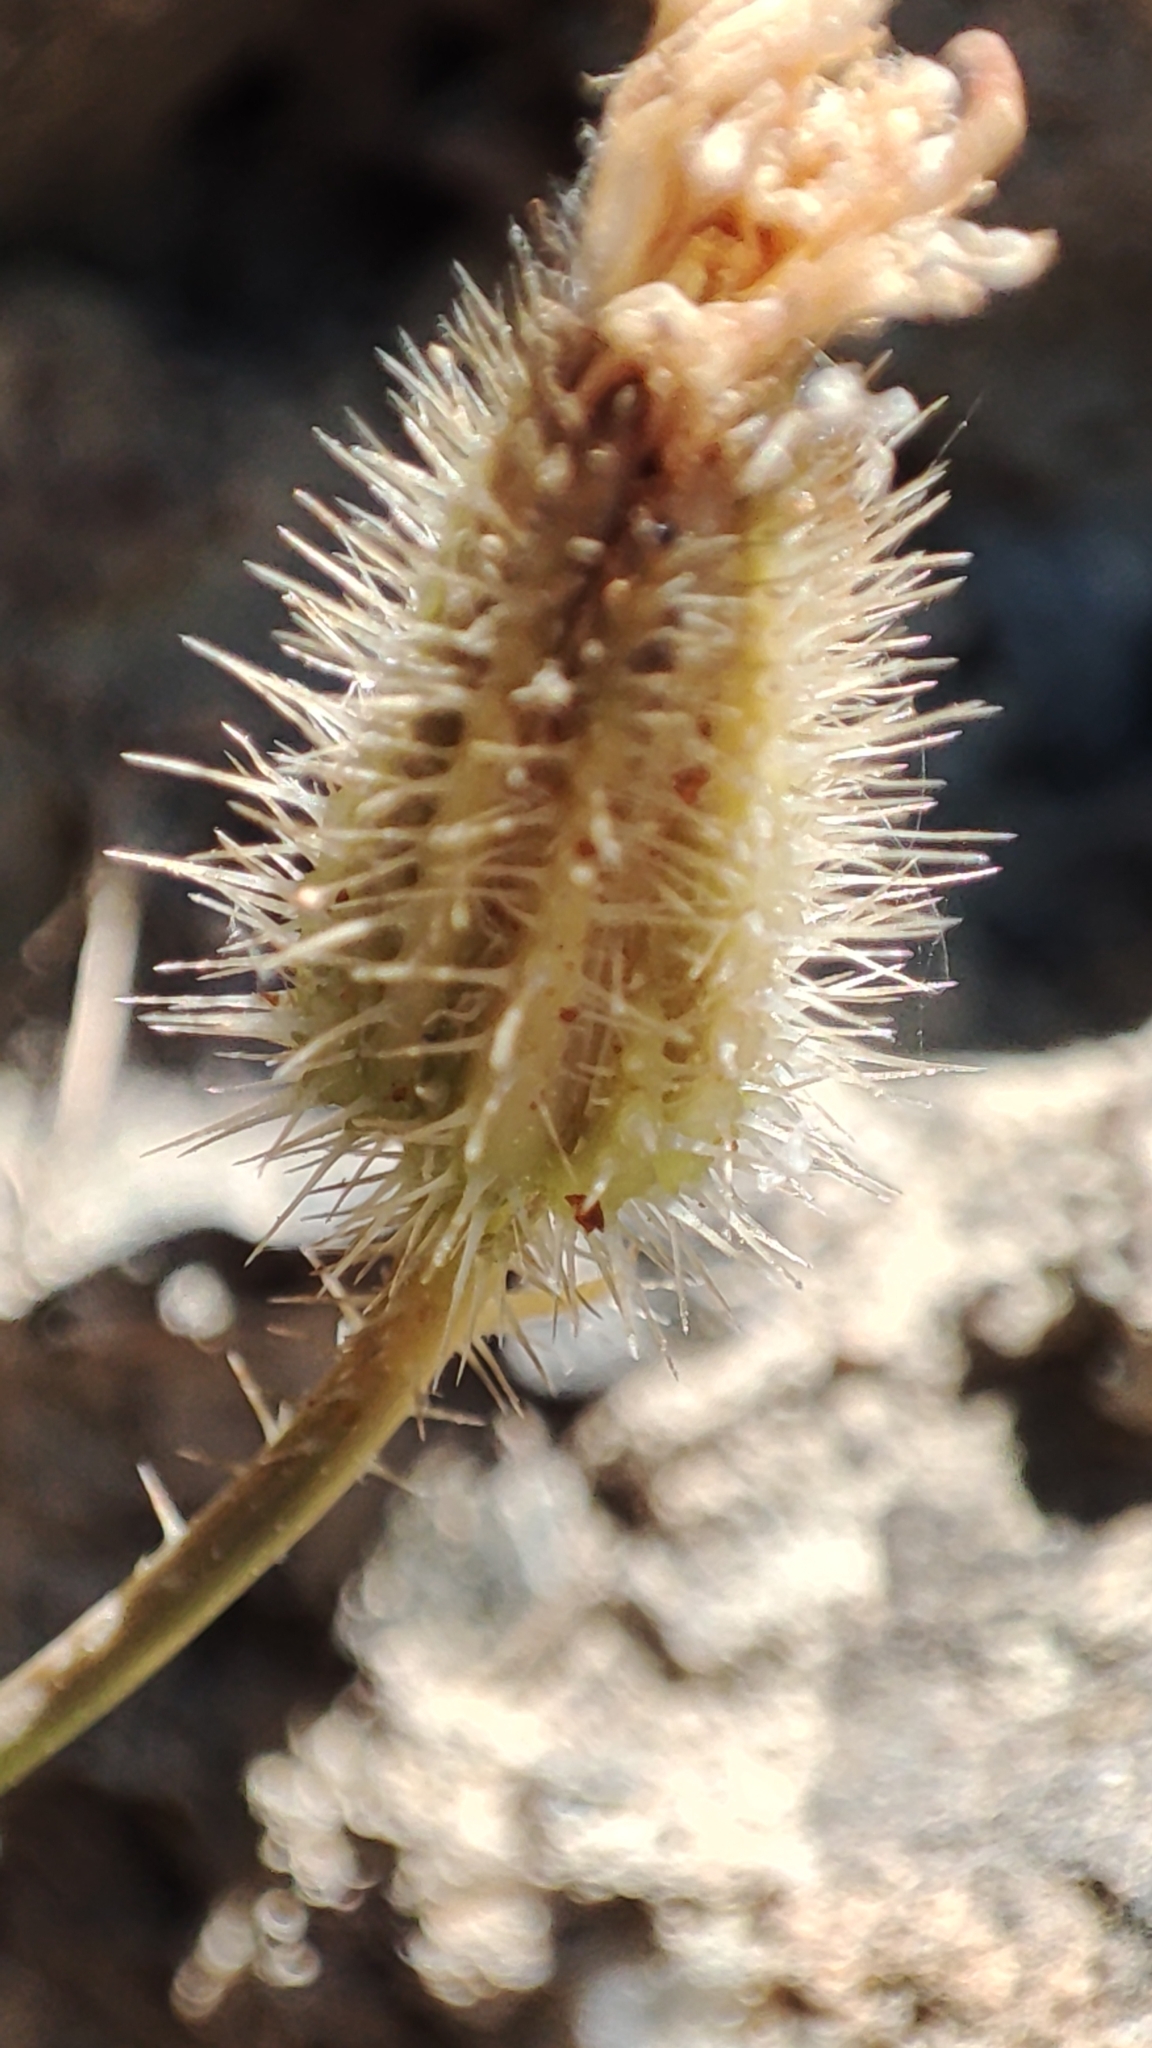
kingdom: Plantae
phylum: Tracheophyta
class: Magnoliopsida
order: Asterales
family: Asteraceae
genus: Achyrophorus
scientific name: Achyrophorus valdesii
